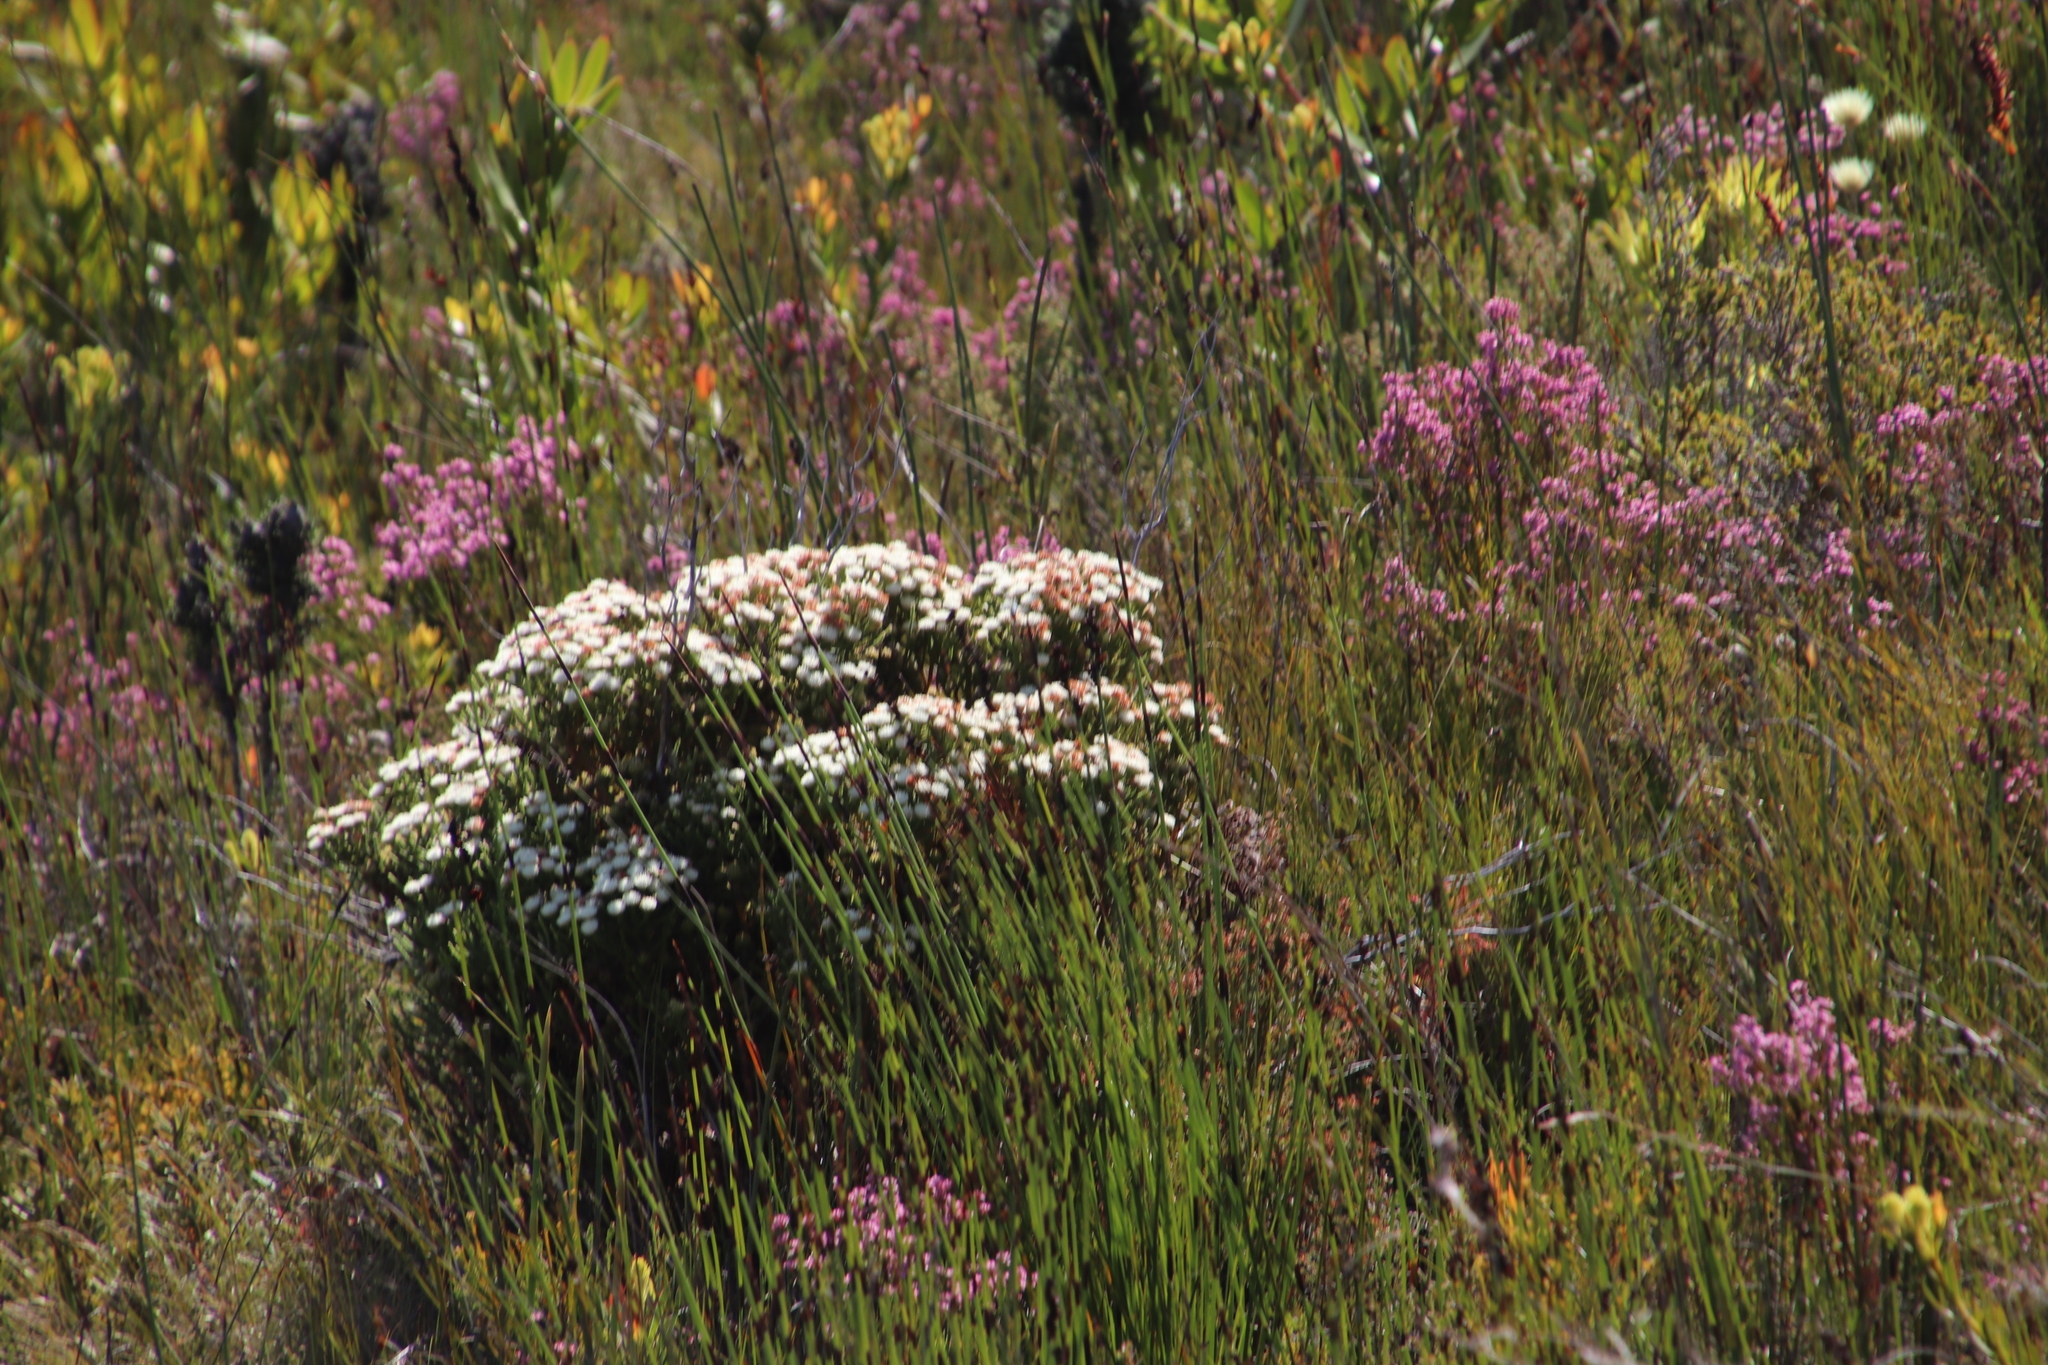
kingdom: Plantae
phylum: Tracheophyta
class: Magnoliopsida
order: Bruniales
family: Bruniaceae
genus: Brunia
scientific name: Brunia paleacea
